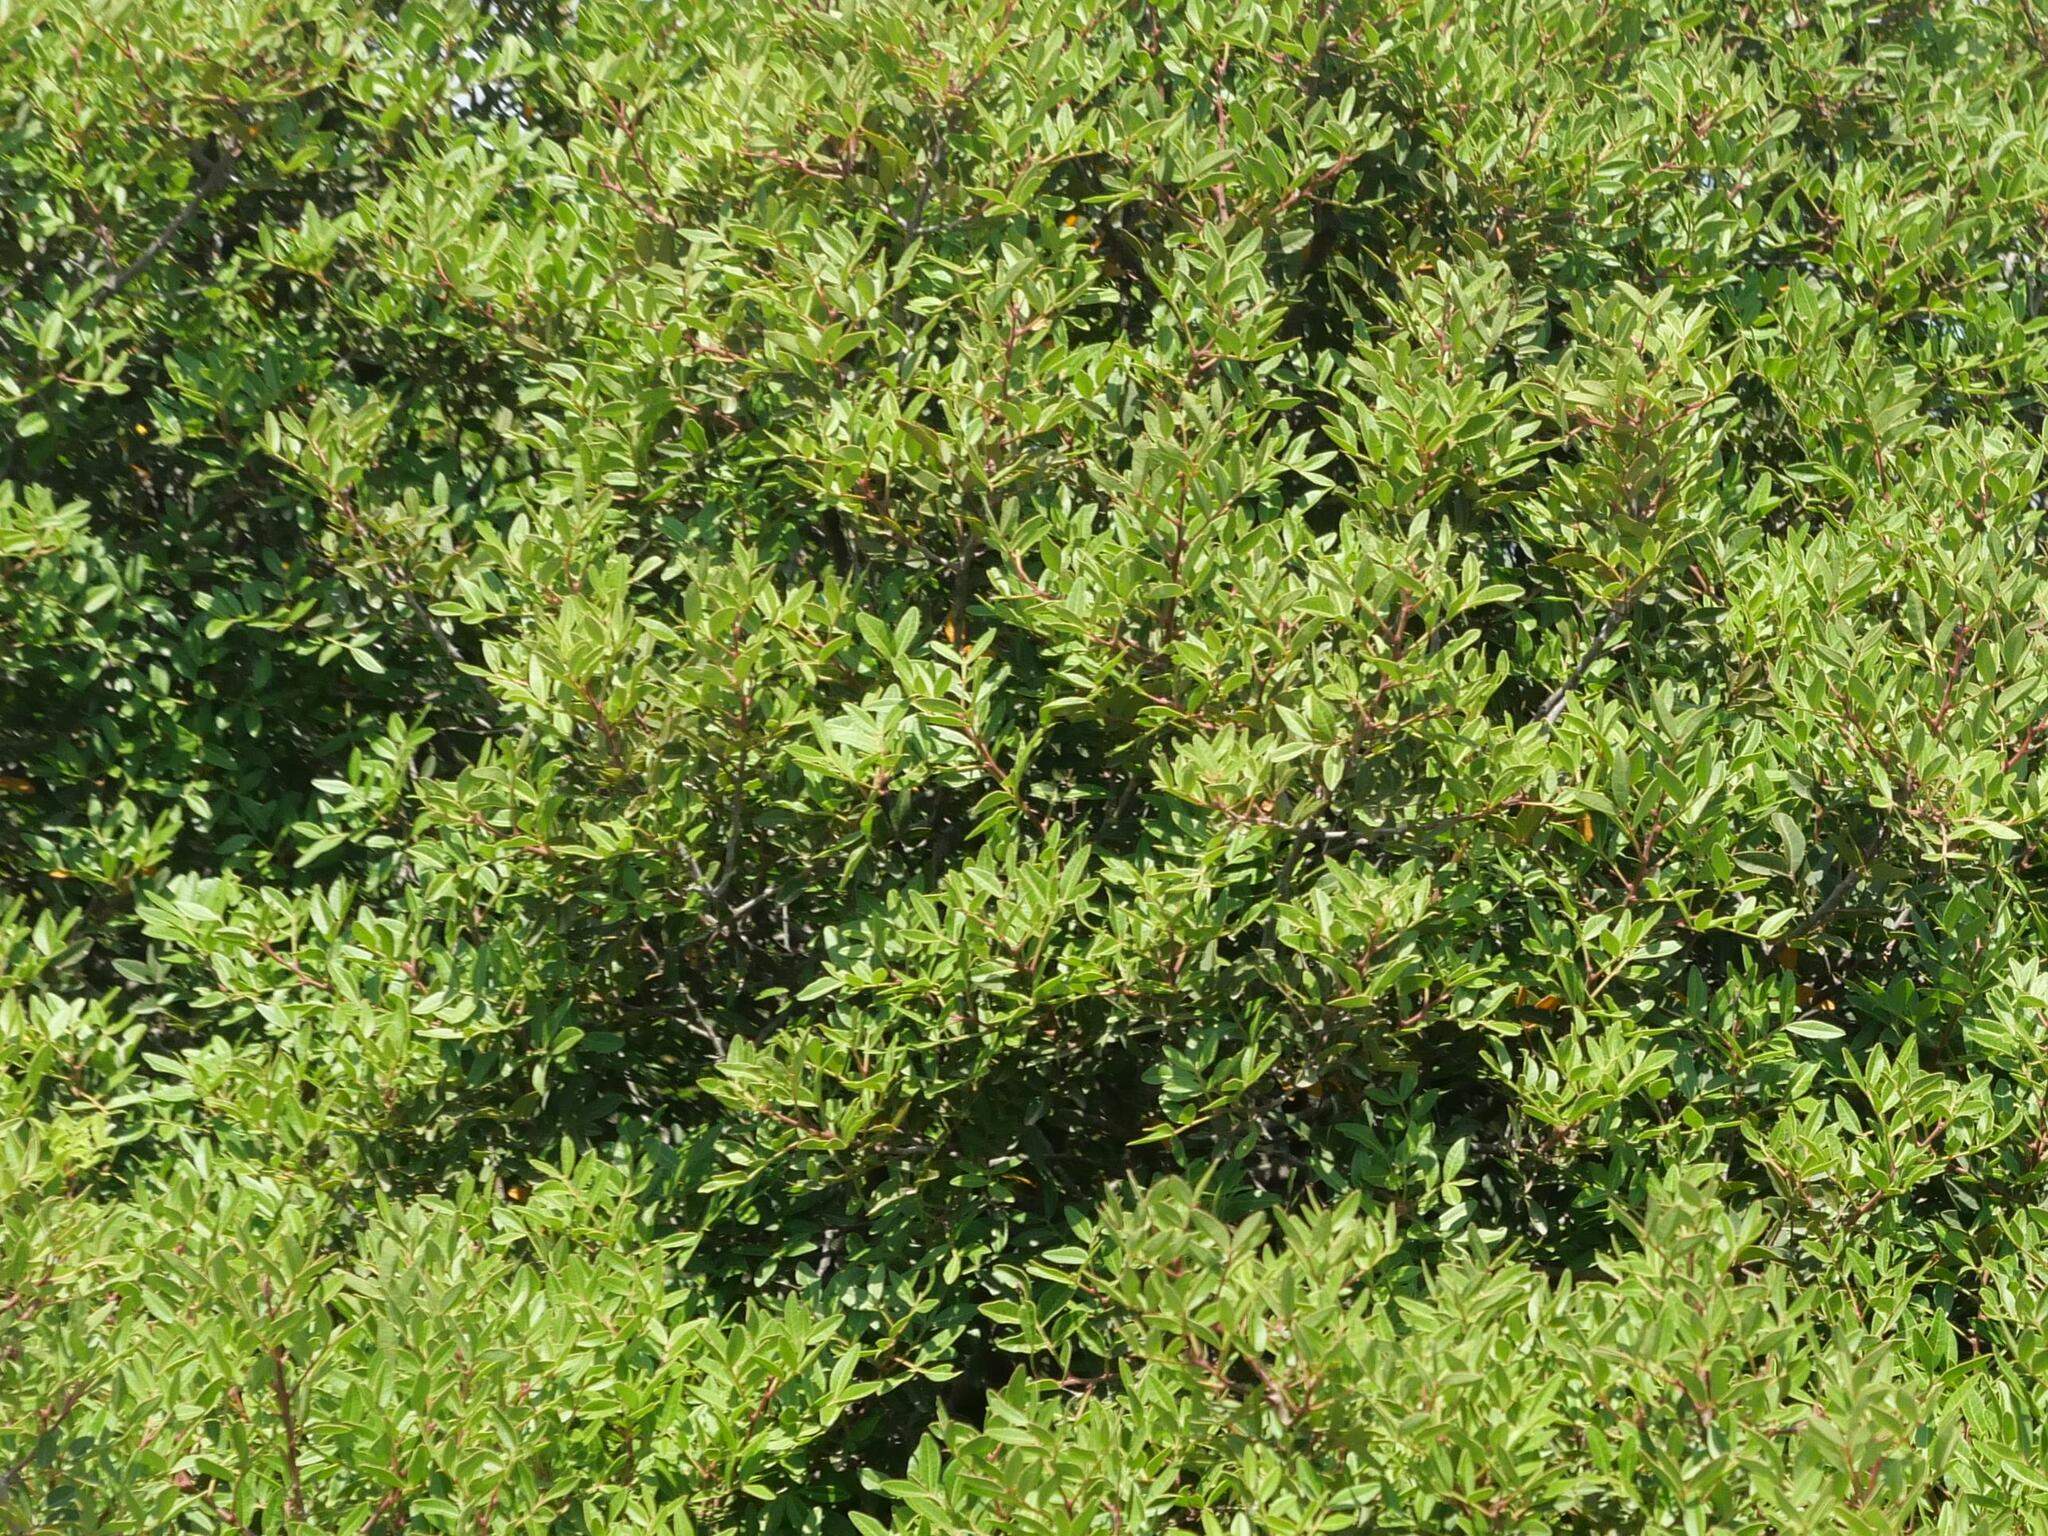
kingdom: Plantae
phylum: Tracheophyta
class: Magnoliopsida
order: Sapindales
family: Anacardiaceae
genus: Pistacia
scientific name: Pistacia lentiscus
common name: Lentisk
